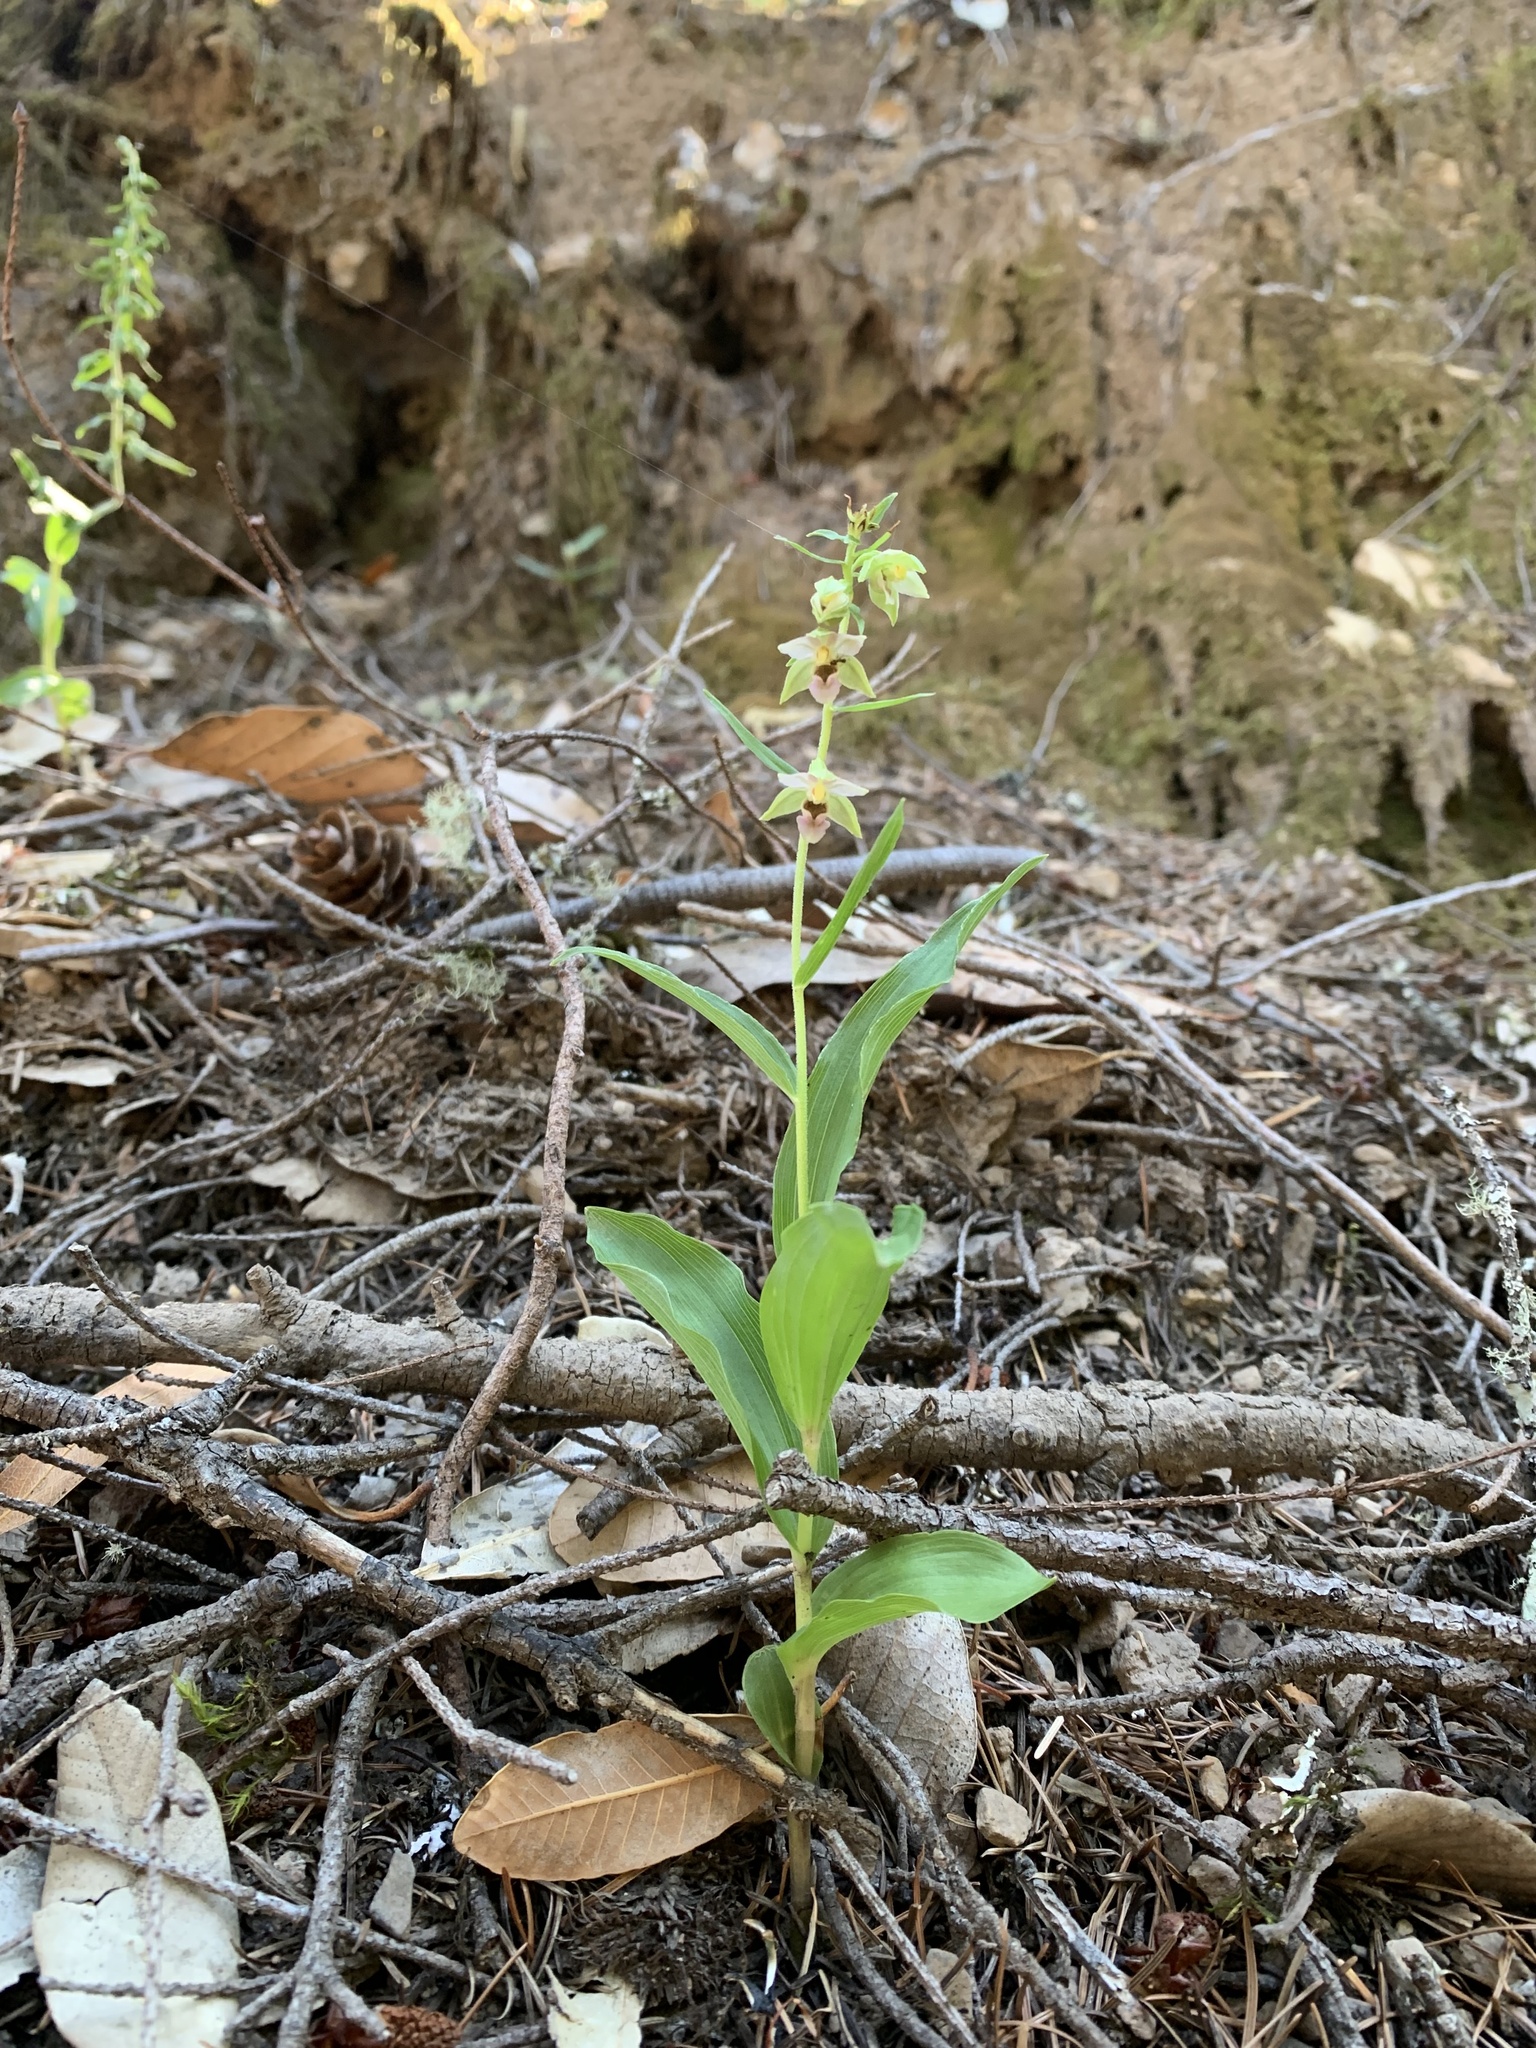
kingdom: Plantae
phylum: Tracheophyta
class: Liliopsida
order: Asparagales
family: Orchidaceae
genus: Epipactis
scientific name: Epipactis helleborine
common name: Broad-leaved helleborine
